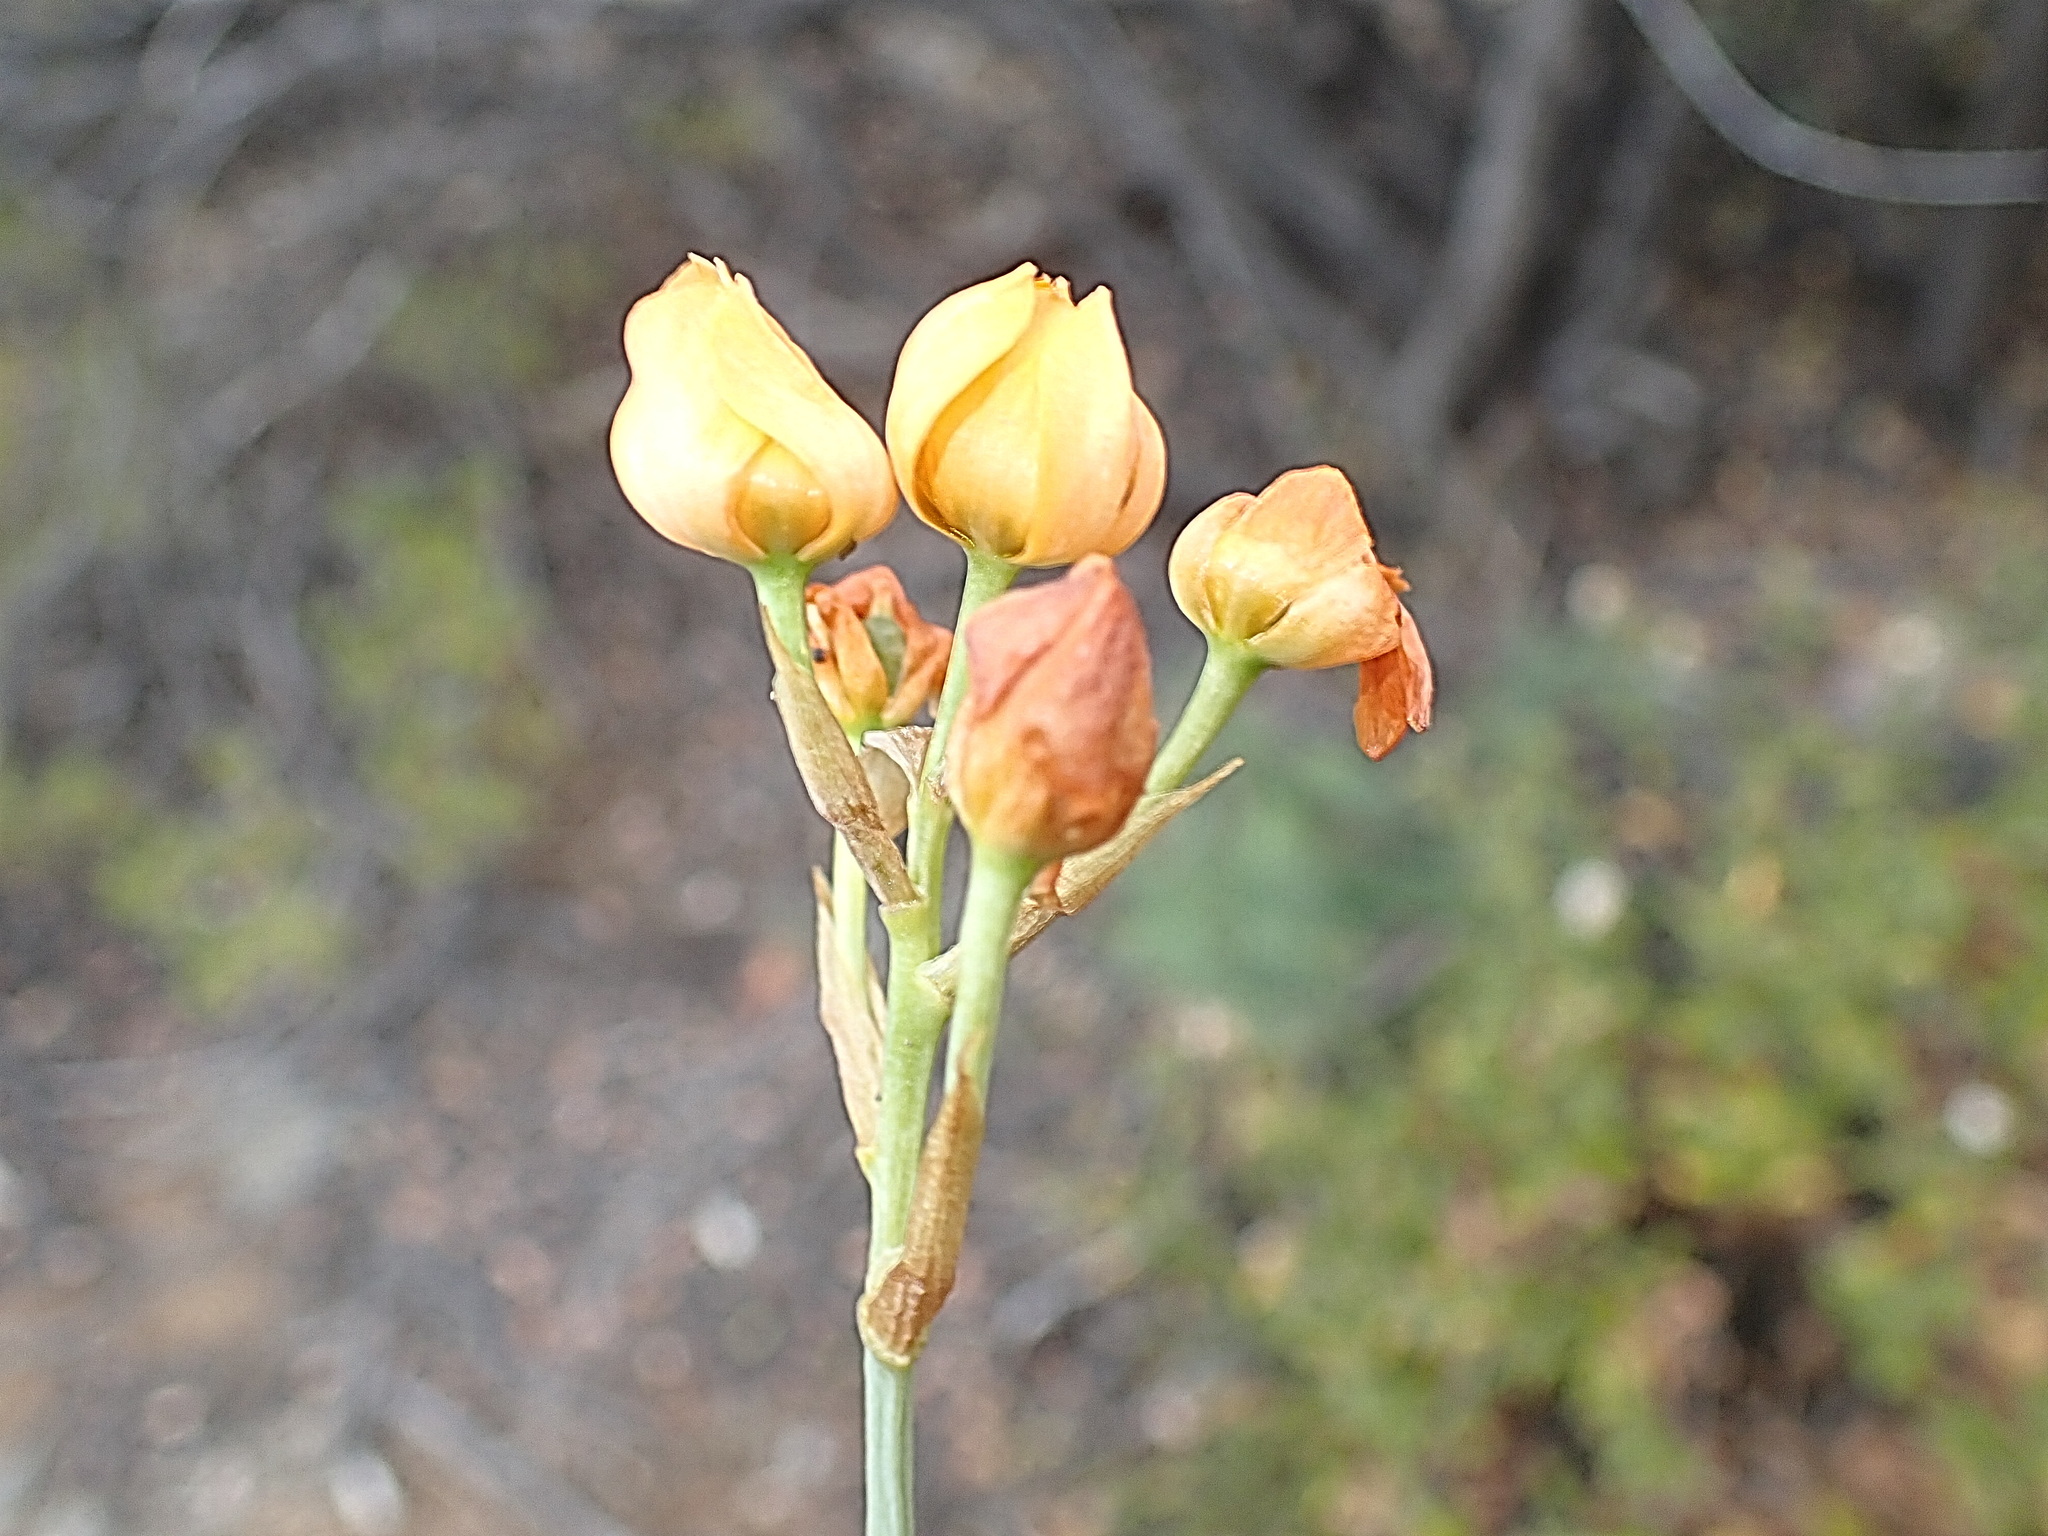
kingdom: Plantae
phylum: Tracheophyta
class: Liliopsida
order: Asparagales
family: Asparagaceae
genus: Ornithogalum
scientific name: Ornithogalum dubium
